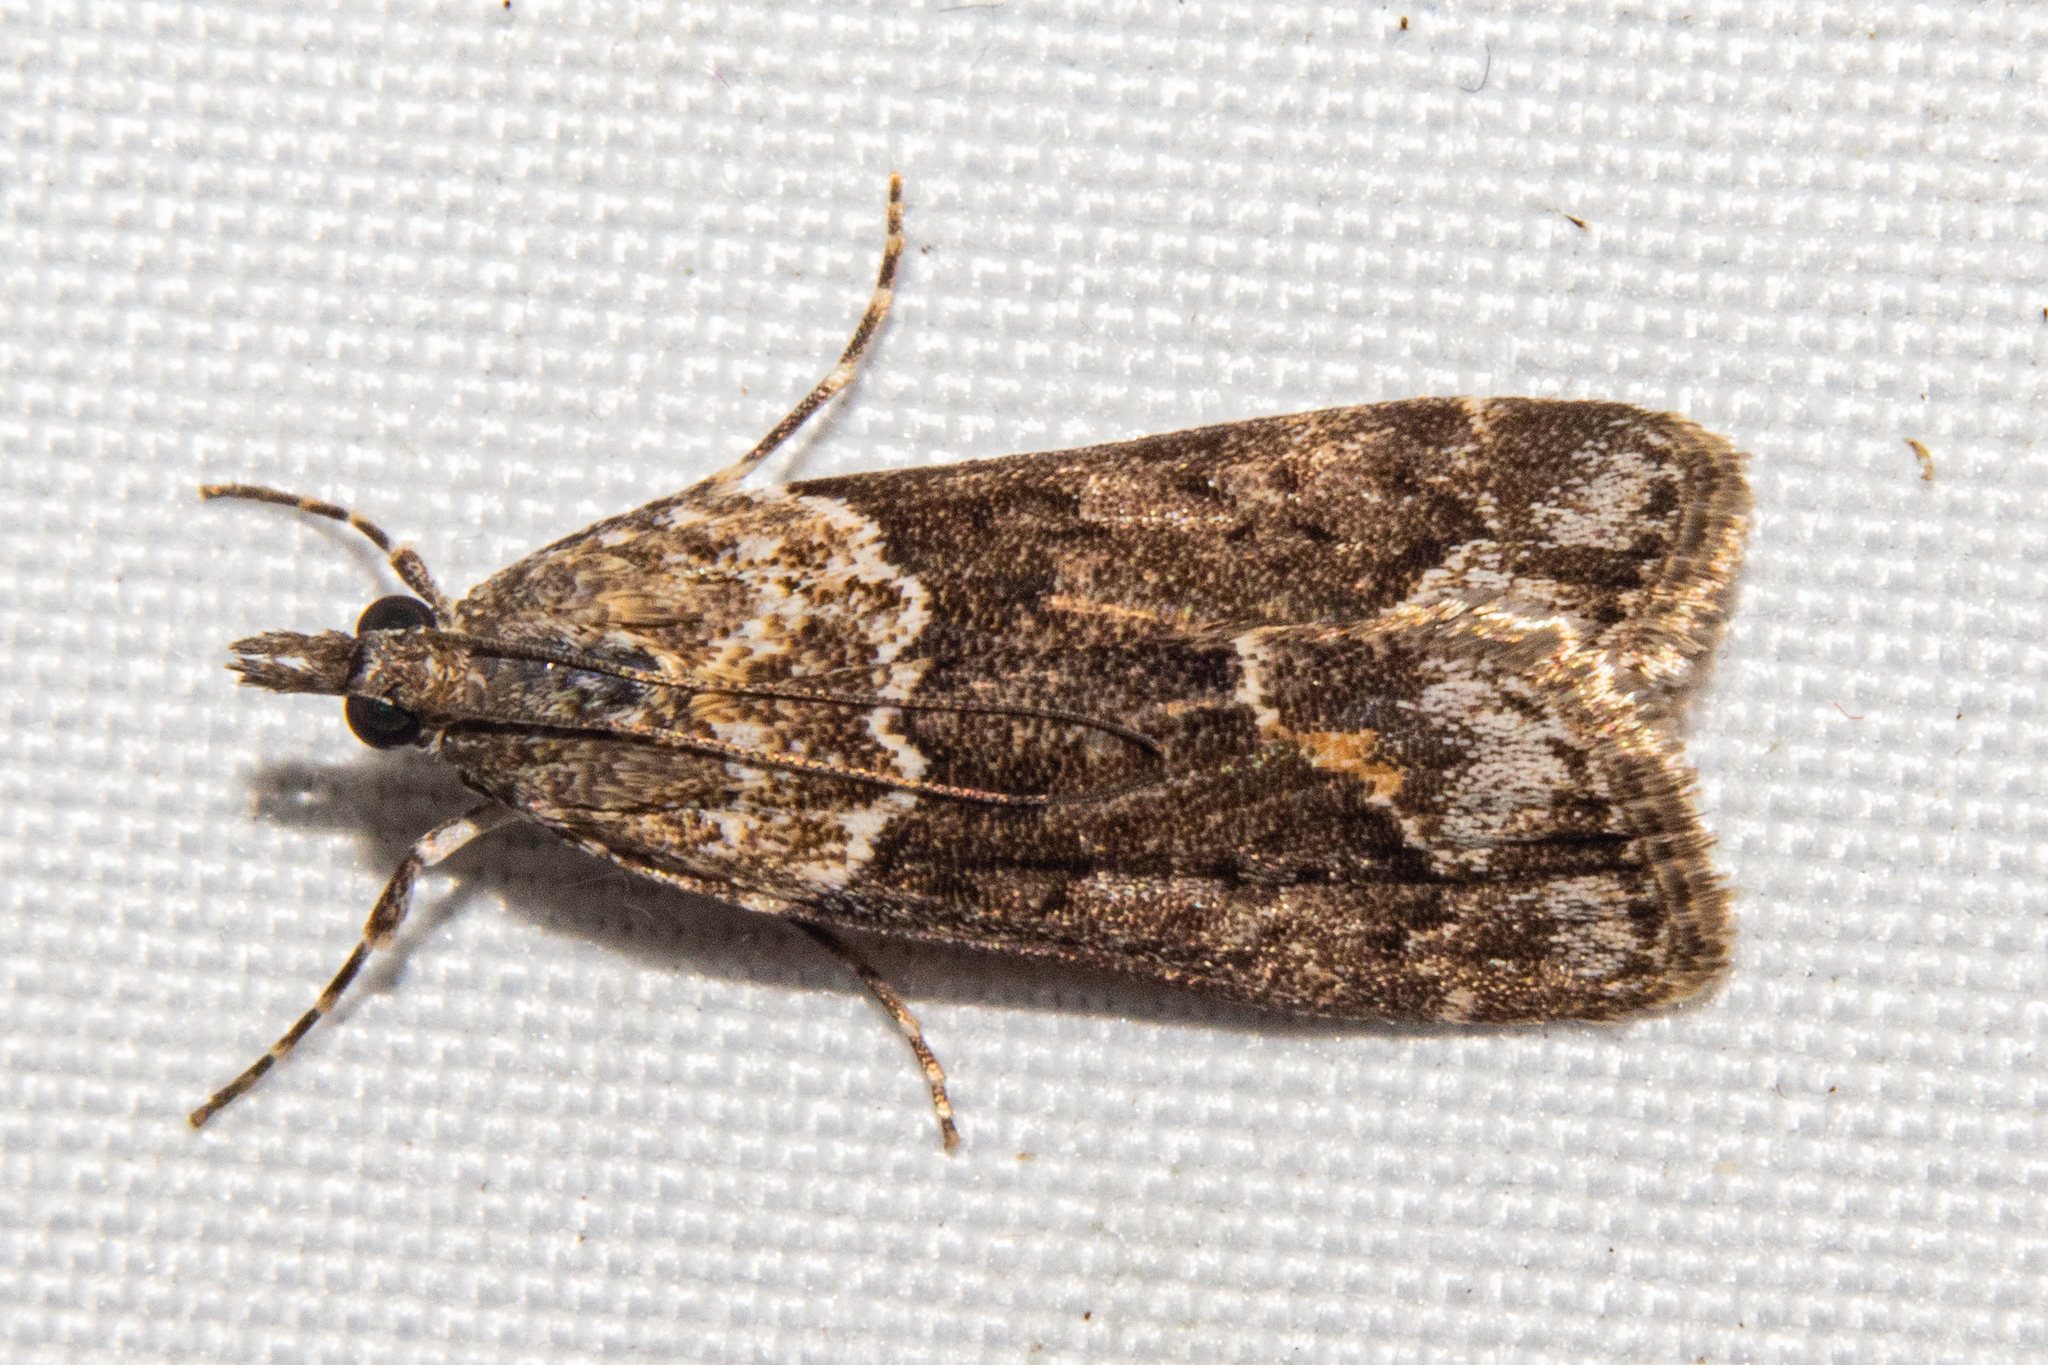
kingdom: Animalia
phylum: Arthropoda
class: Insecta
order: Lepidoptera
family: Crambidae
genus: Eudonia
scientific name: Eudonia submarginalis
